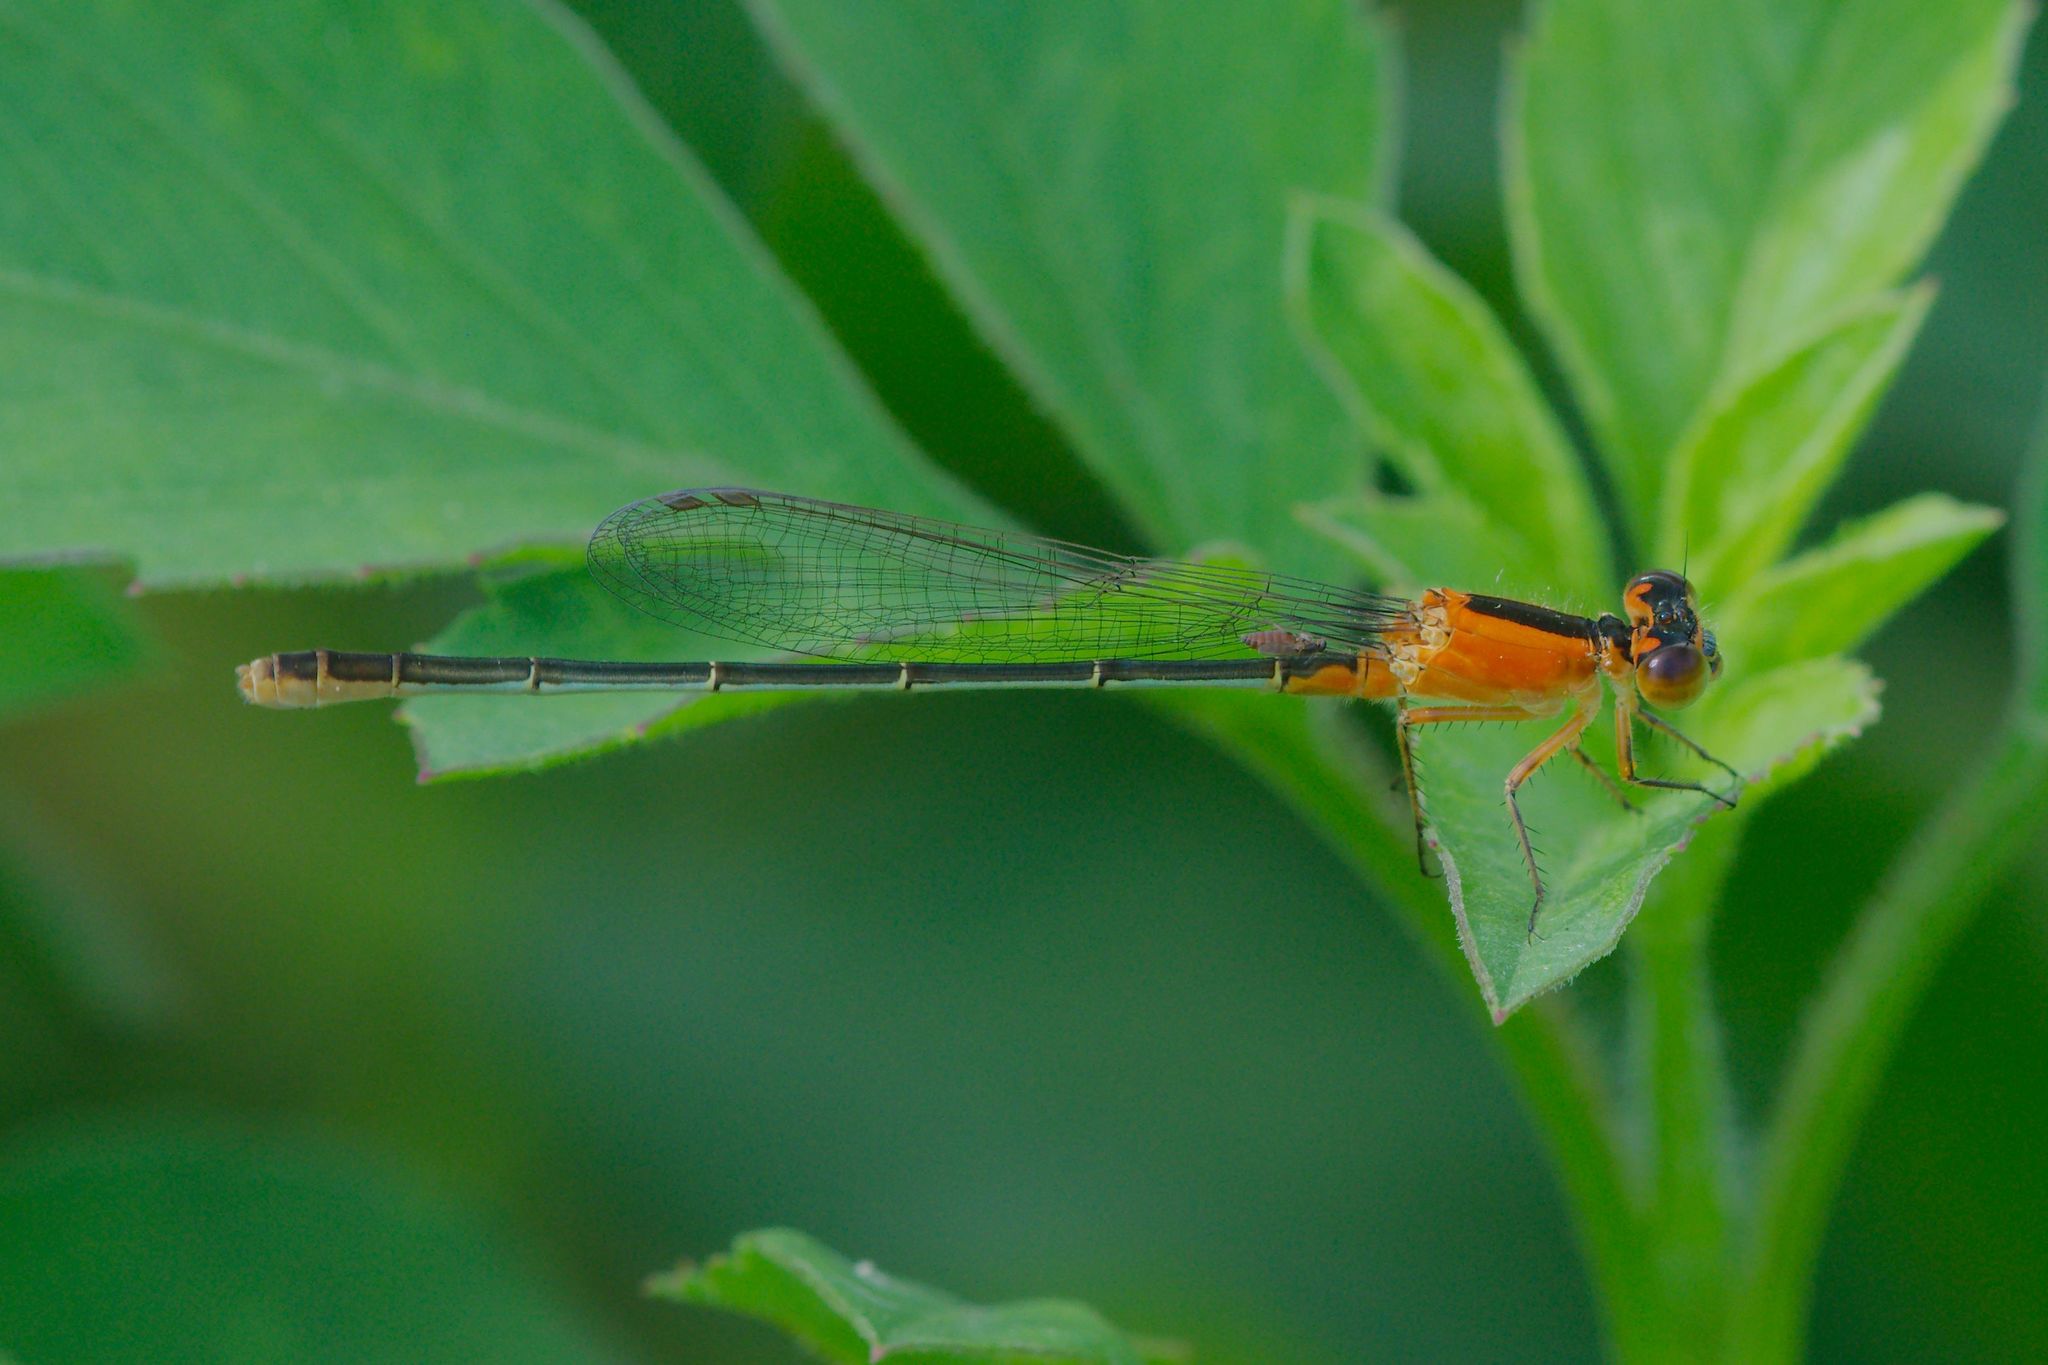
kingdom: Animalia
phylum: Arthropoda
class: Insecta
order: Odonata
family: Coenagrionidae
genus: Ischnura
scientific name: Ischnura ramburii
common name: Rambur's forktail
